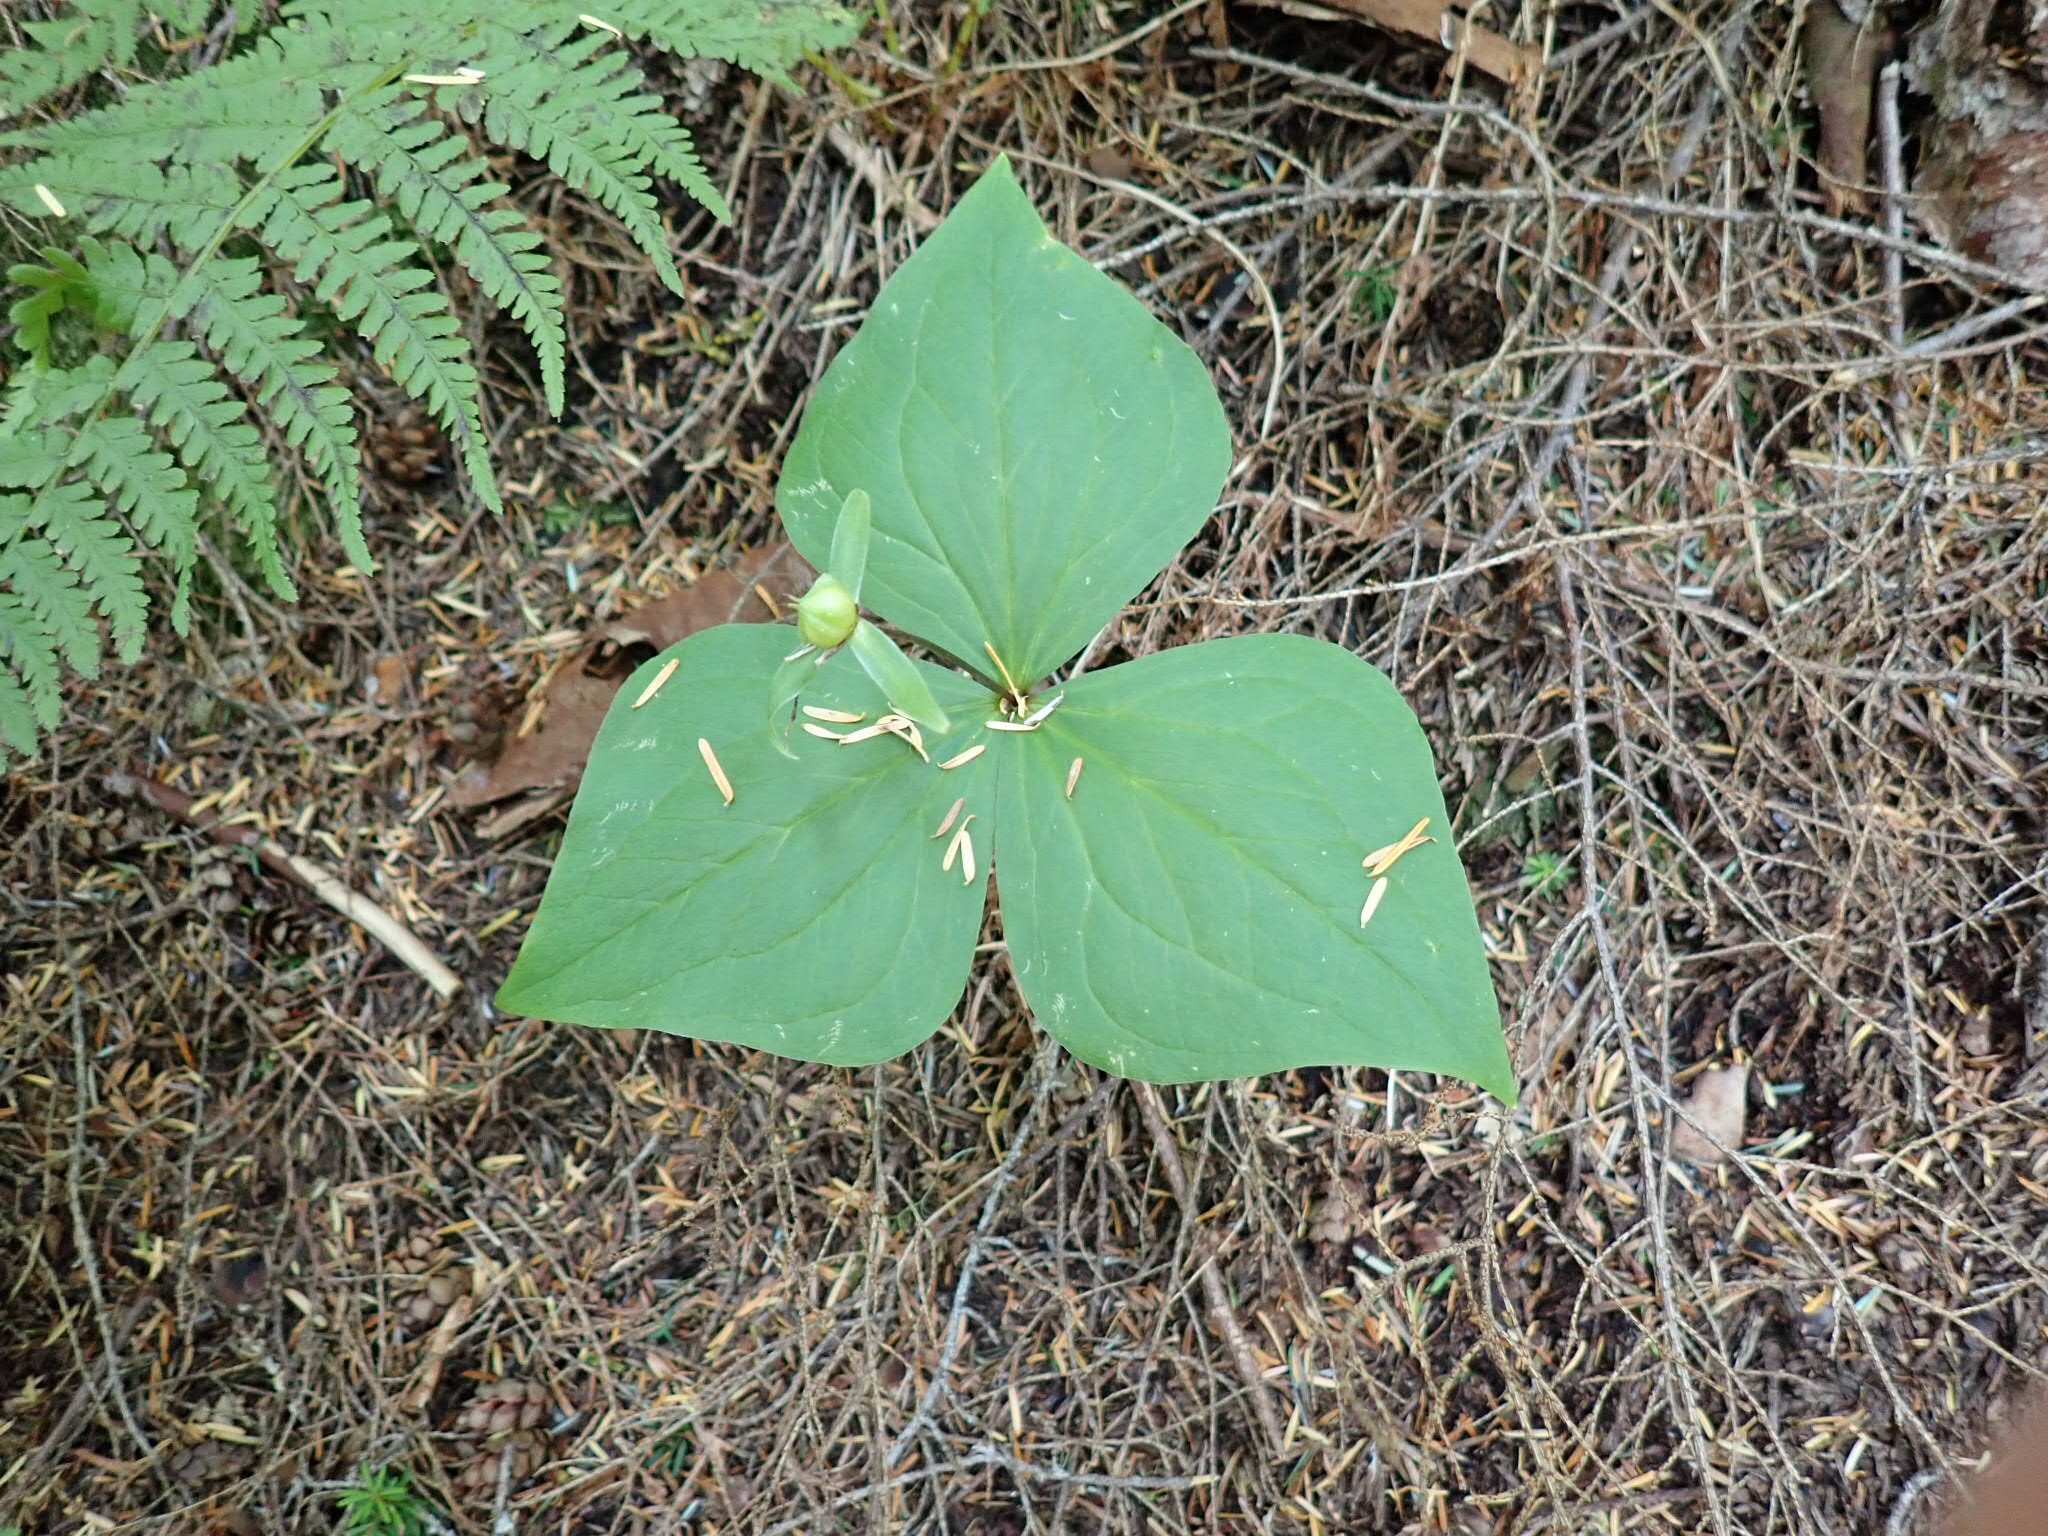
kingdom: Plantae
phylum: Tracheophyta
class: Liliopsida
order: Liliales
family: Melanthiaceae
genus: Trillium
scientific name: Trillium ovatum
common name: Pacific trillium
